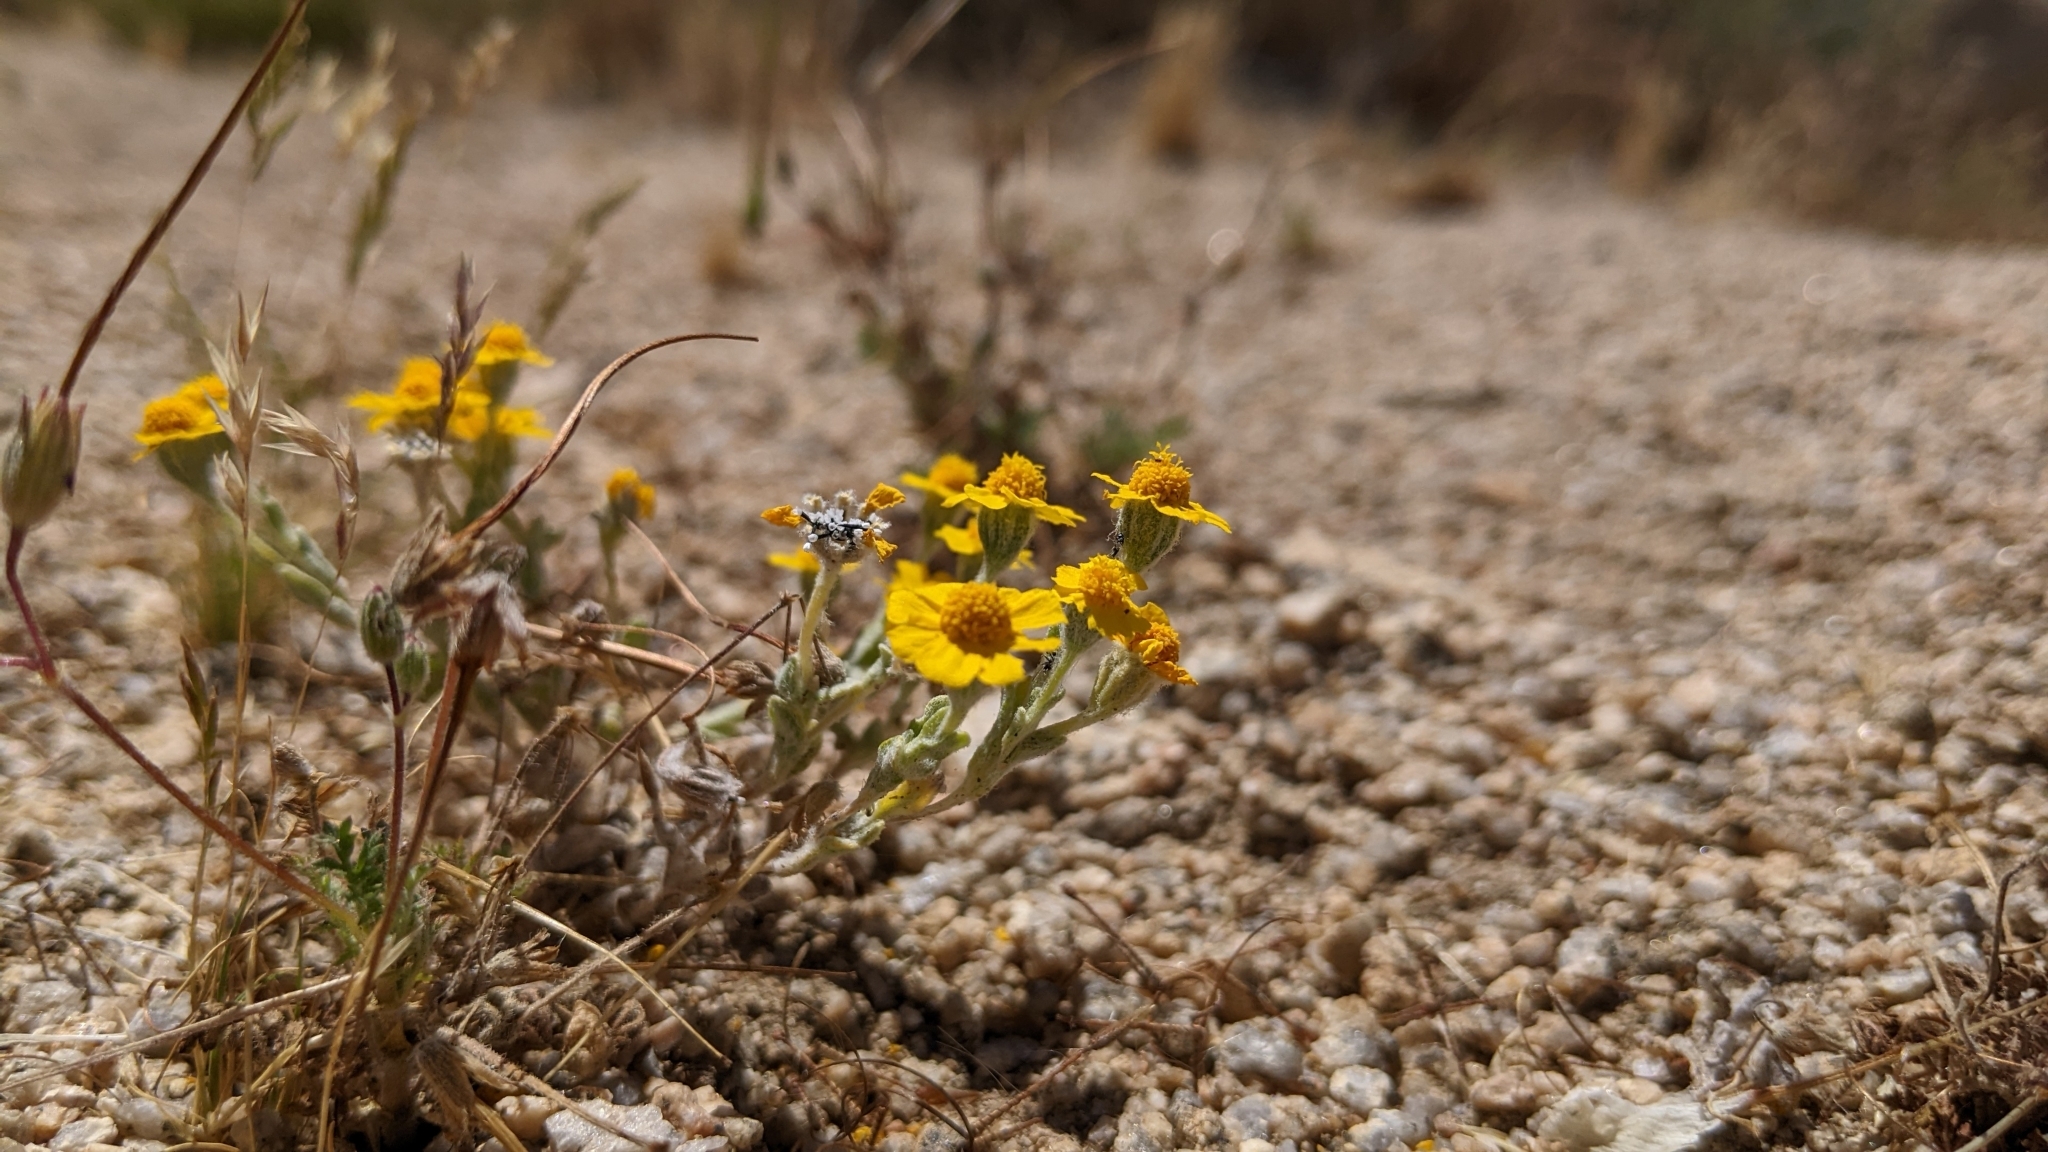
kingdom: Plantae
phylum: Tracheophyta
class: Magnoliopsida
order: Asterales
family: Asteraceae
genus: Eriophyllum
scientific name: Eriophyllum wallacei
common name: Wallace's woolly daisy
